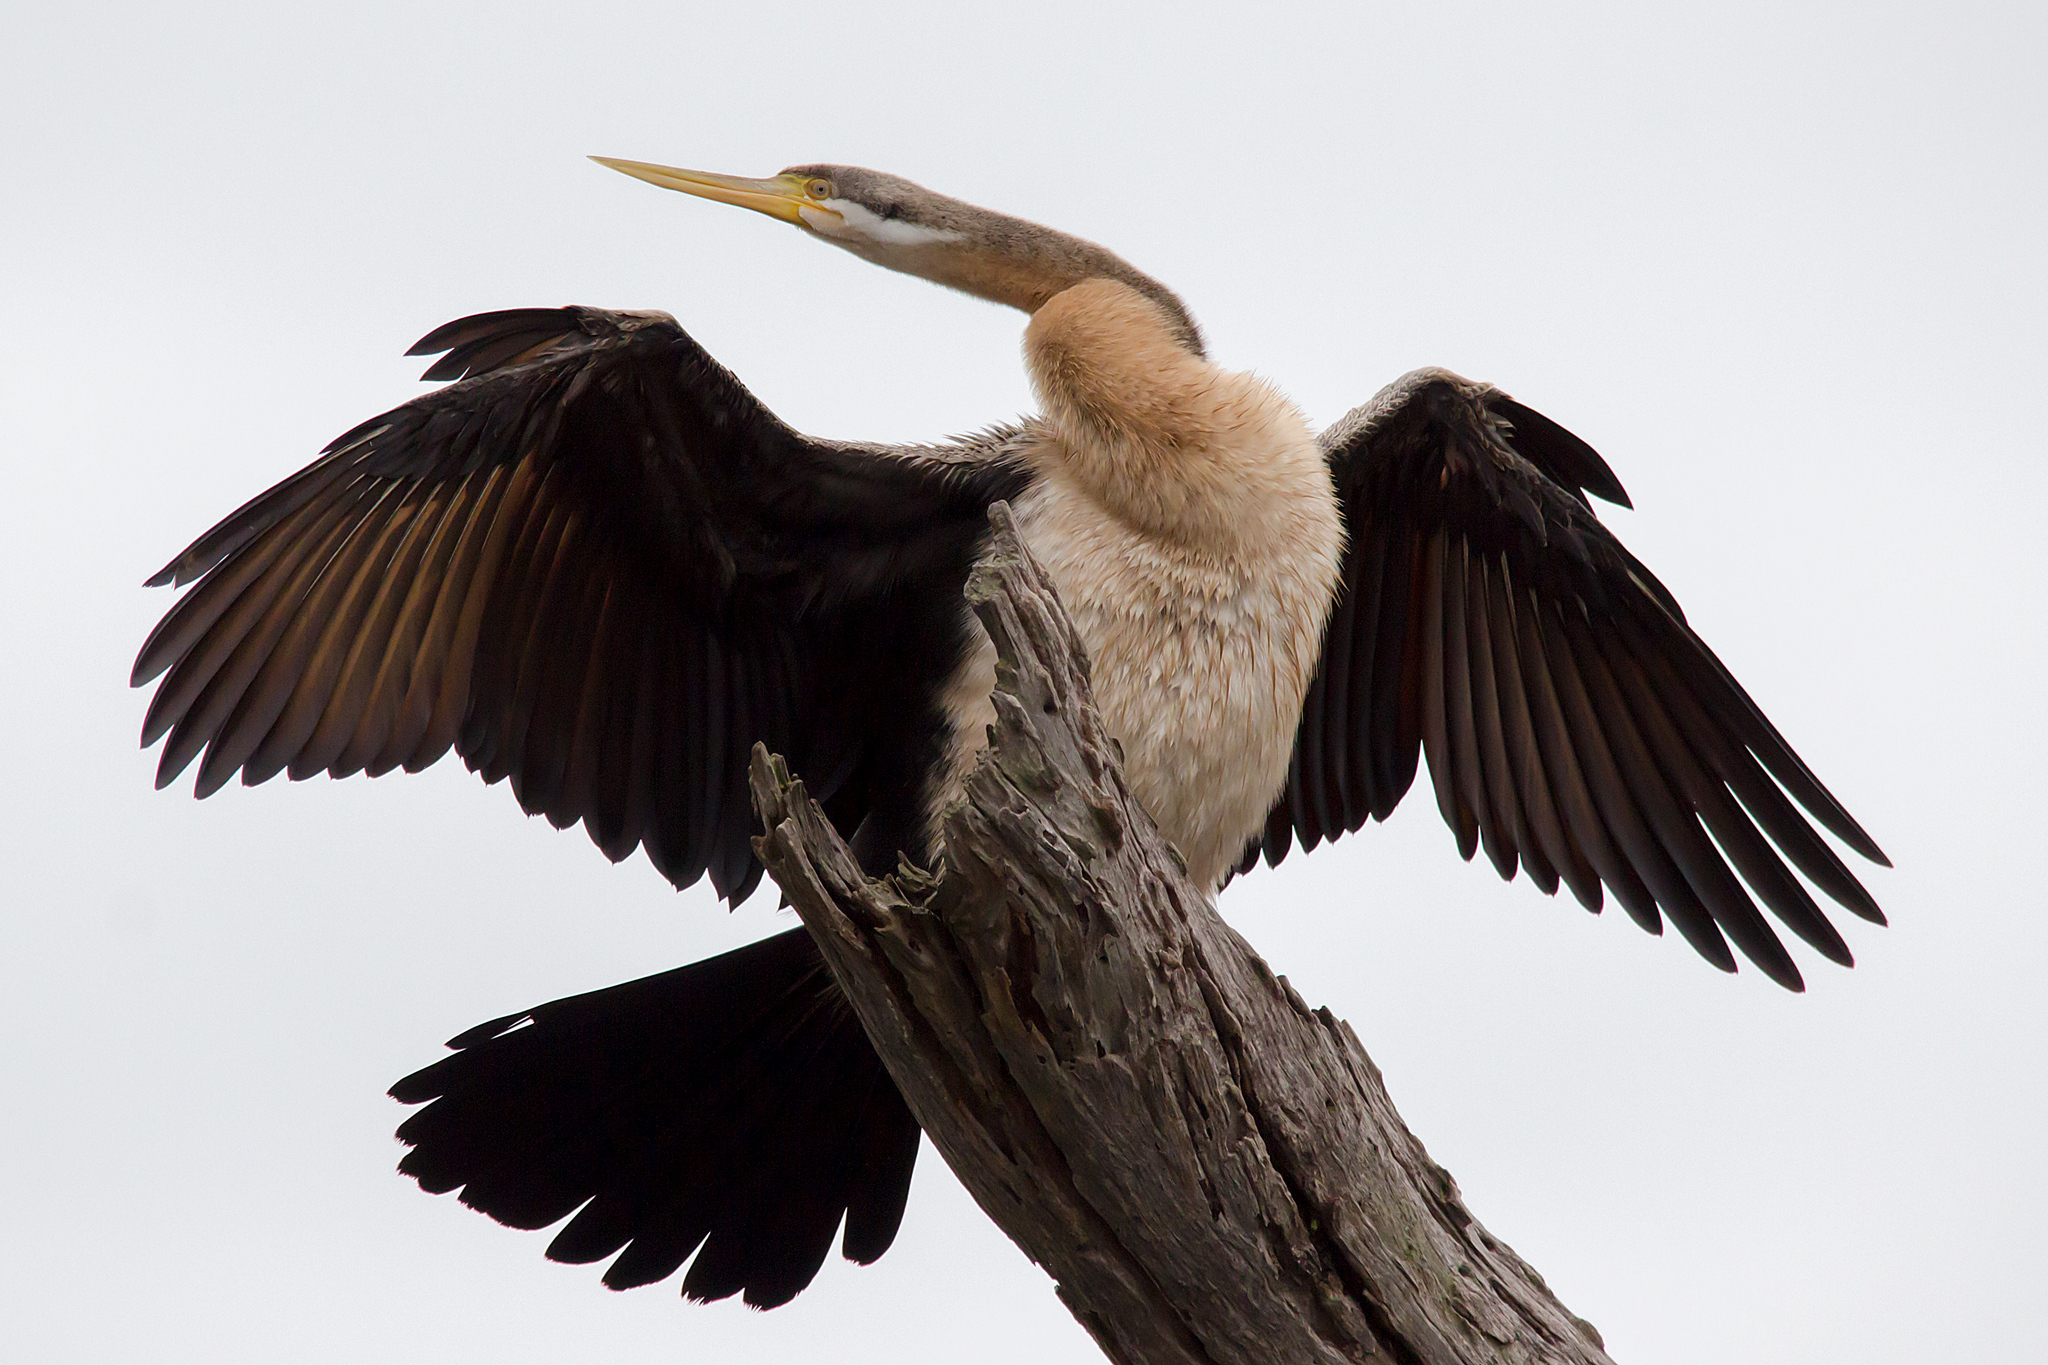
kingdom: Animalia
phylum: Chordata
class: Aves
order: Suliformes
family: Anhingidae
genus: Anhinga
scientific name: Anhinga novaehollandiae
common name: Australasian darter
